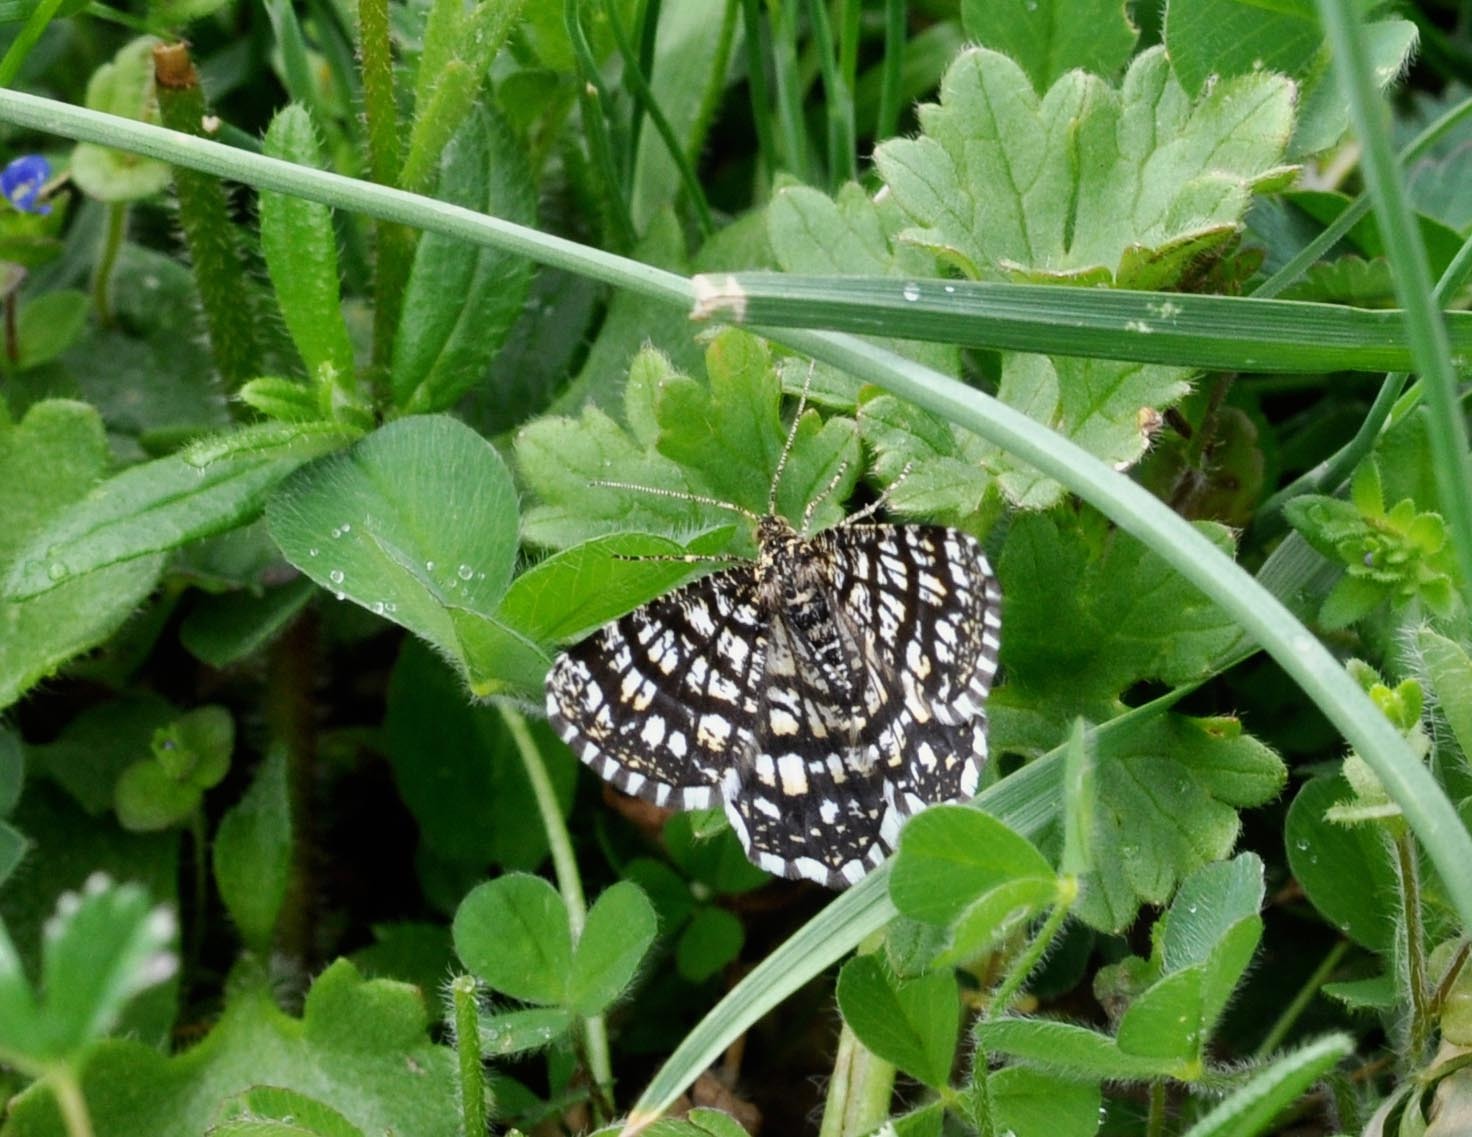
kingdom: Animalia
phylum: Arthropoda
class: Insecta
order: Lepidoptera
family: Geometridae
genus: Chiasmia
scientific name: Chiasmia clathrata
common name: Latticed heath
